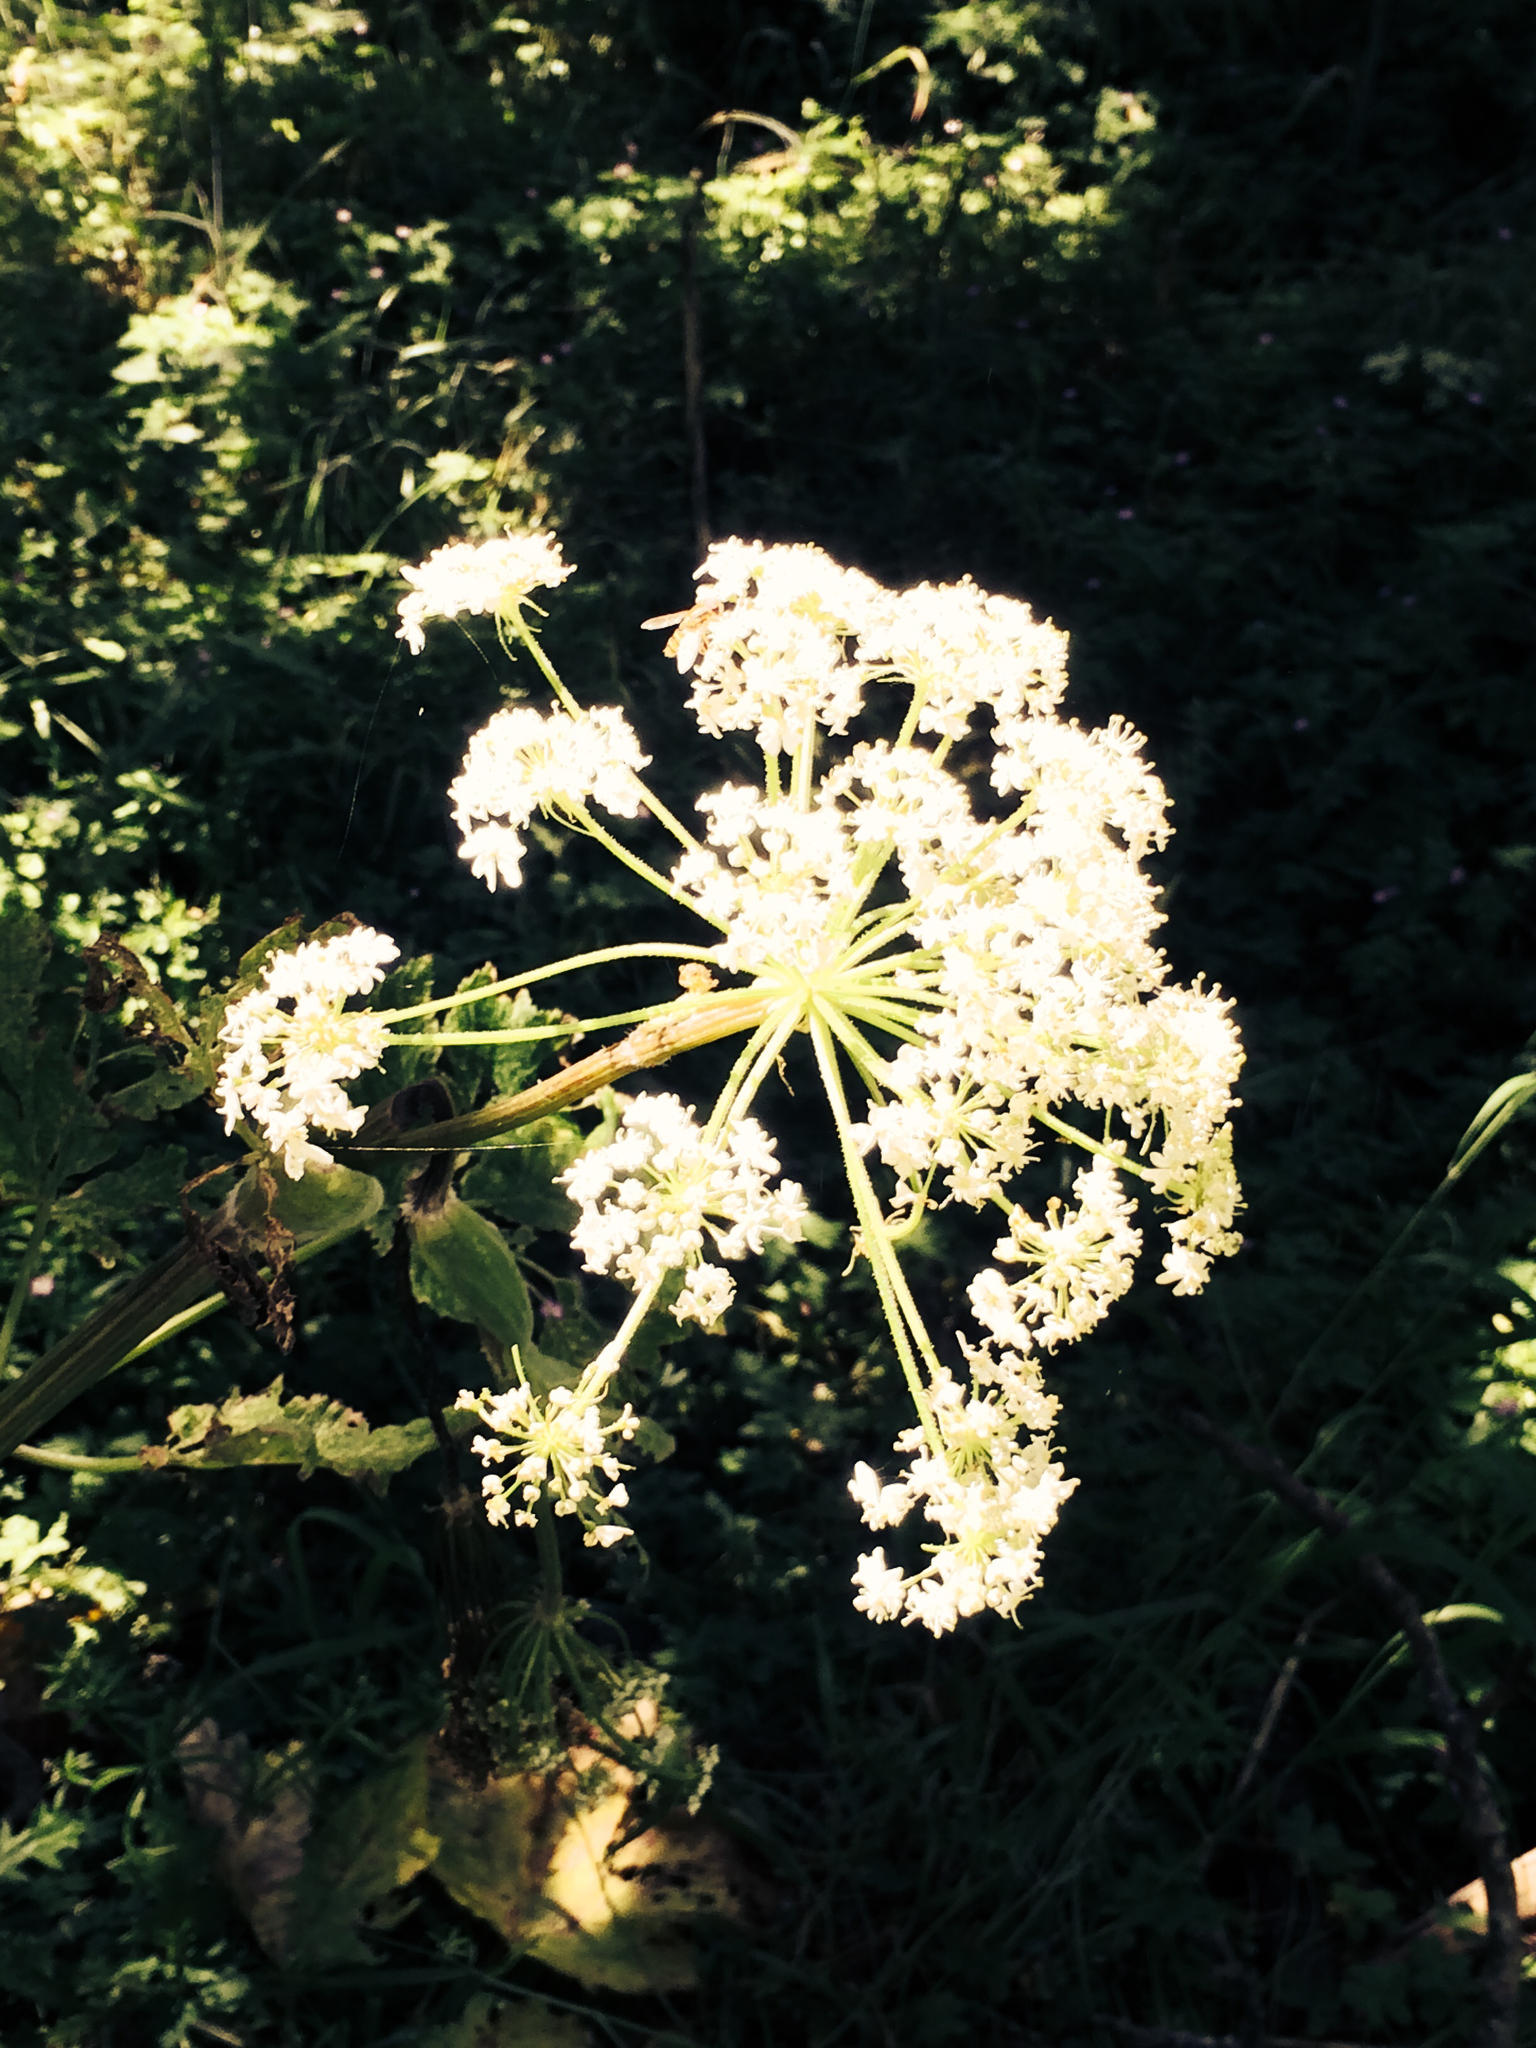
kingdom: Plantae
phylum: Tracheophyta
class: Magnoliopsida
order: Apiales
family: Apiaceae
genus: Heracleum
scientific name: Heracleum maximum
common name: American cow parsnip
